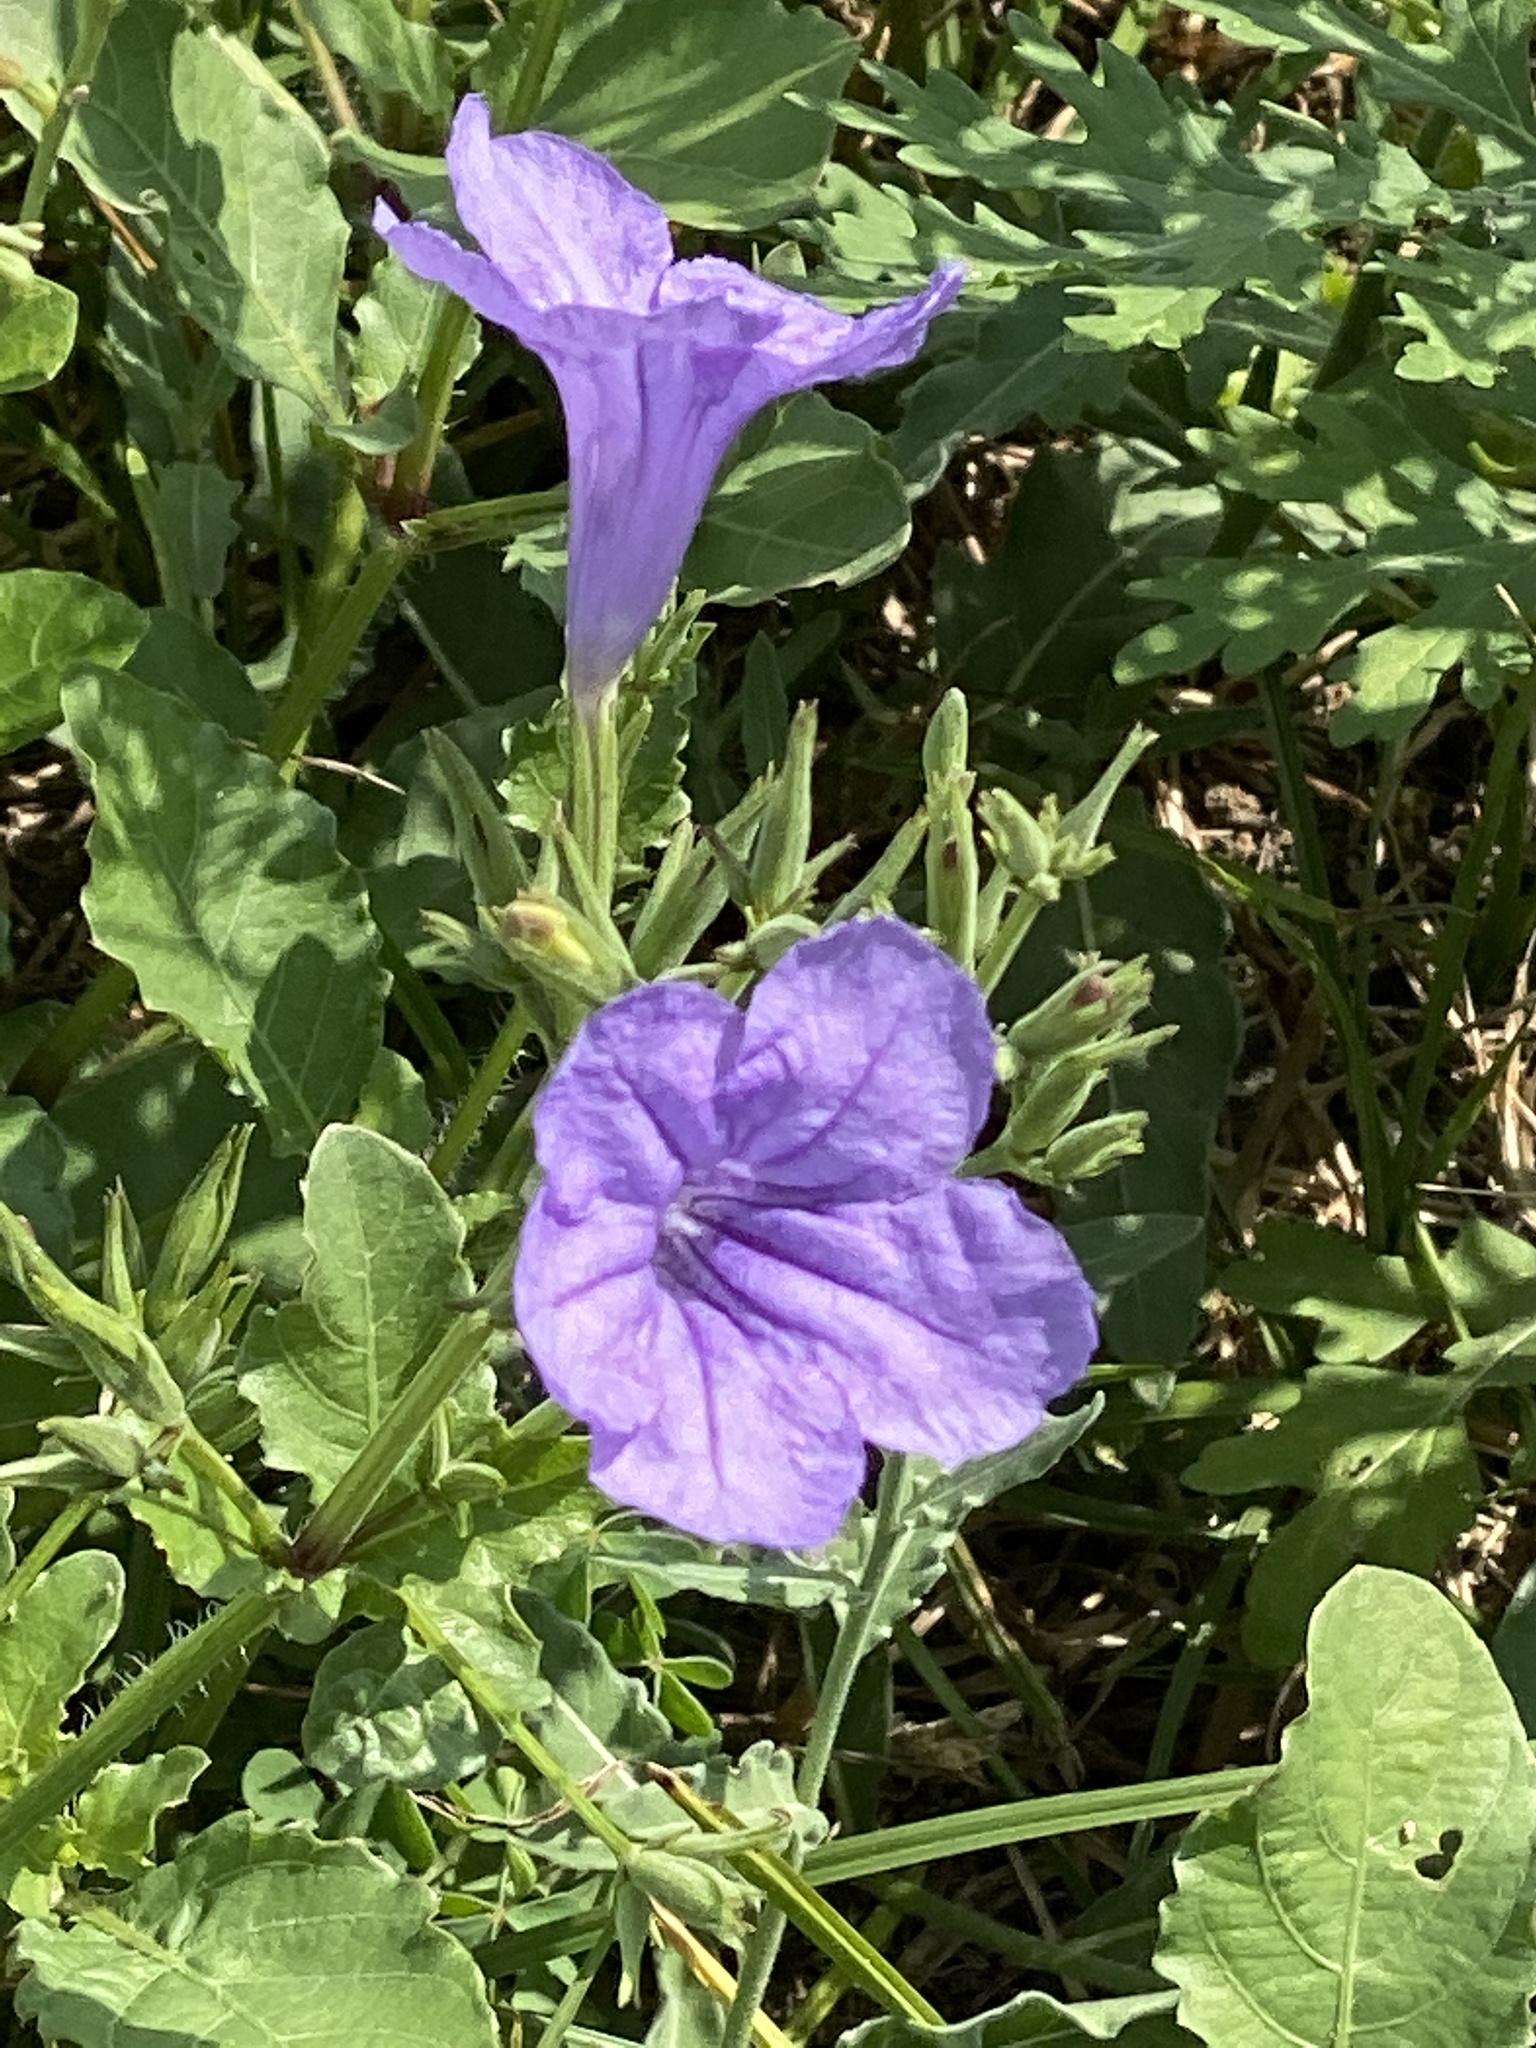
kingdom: Plantae
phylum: Tracheophyta
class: Magnoliopsida
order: Lamiales
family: Acanthaceae
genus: Ruellia
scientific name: Ruellia ciliatiflora
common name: Hairyflower wild petunia
